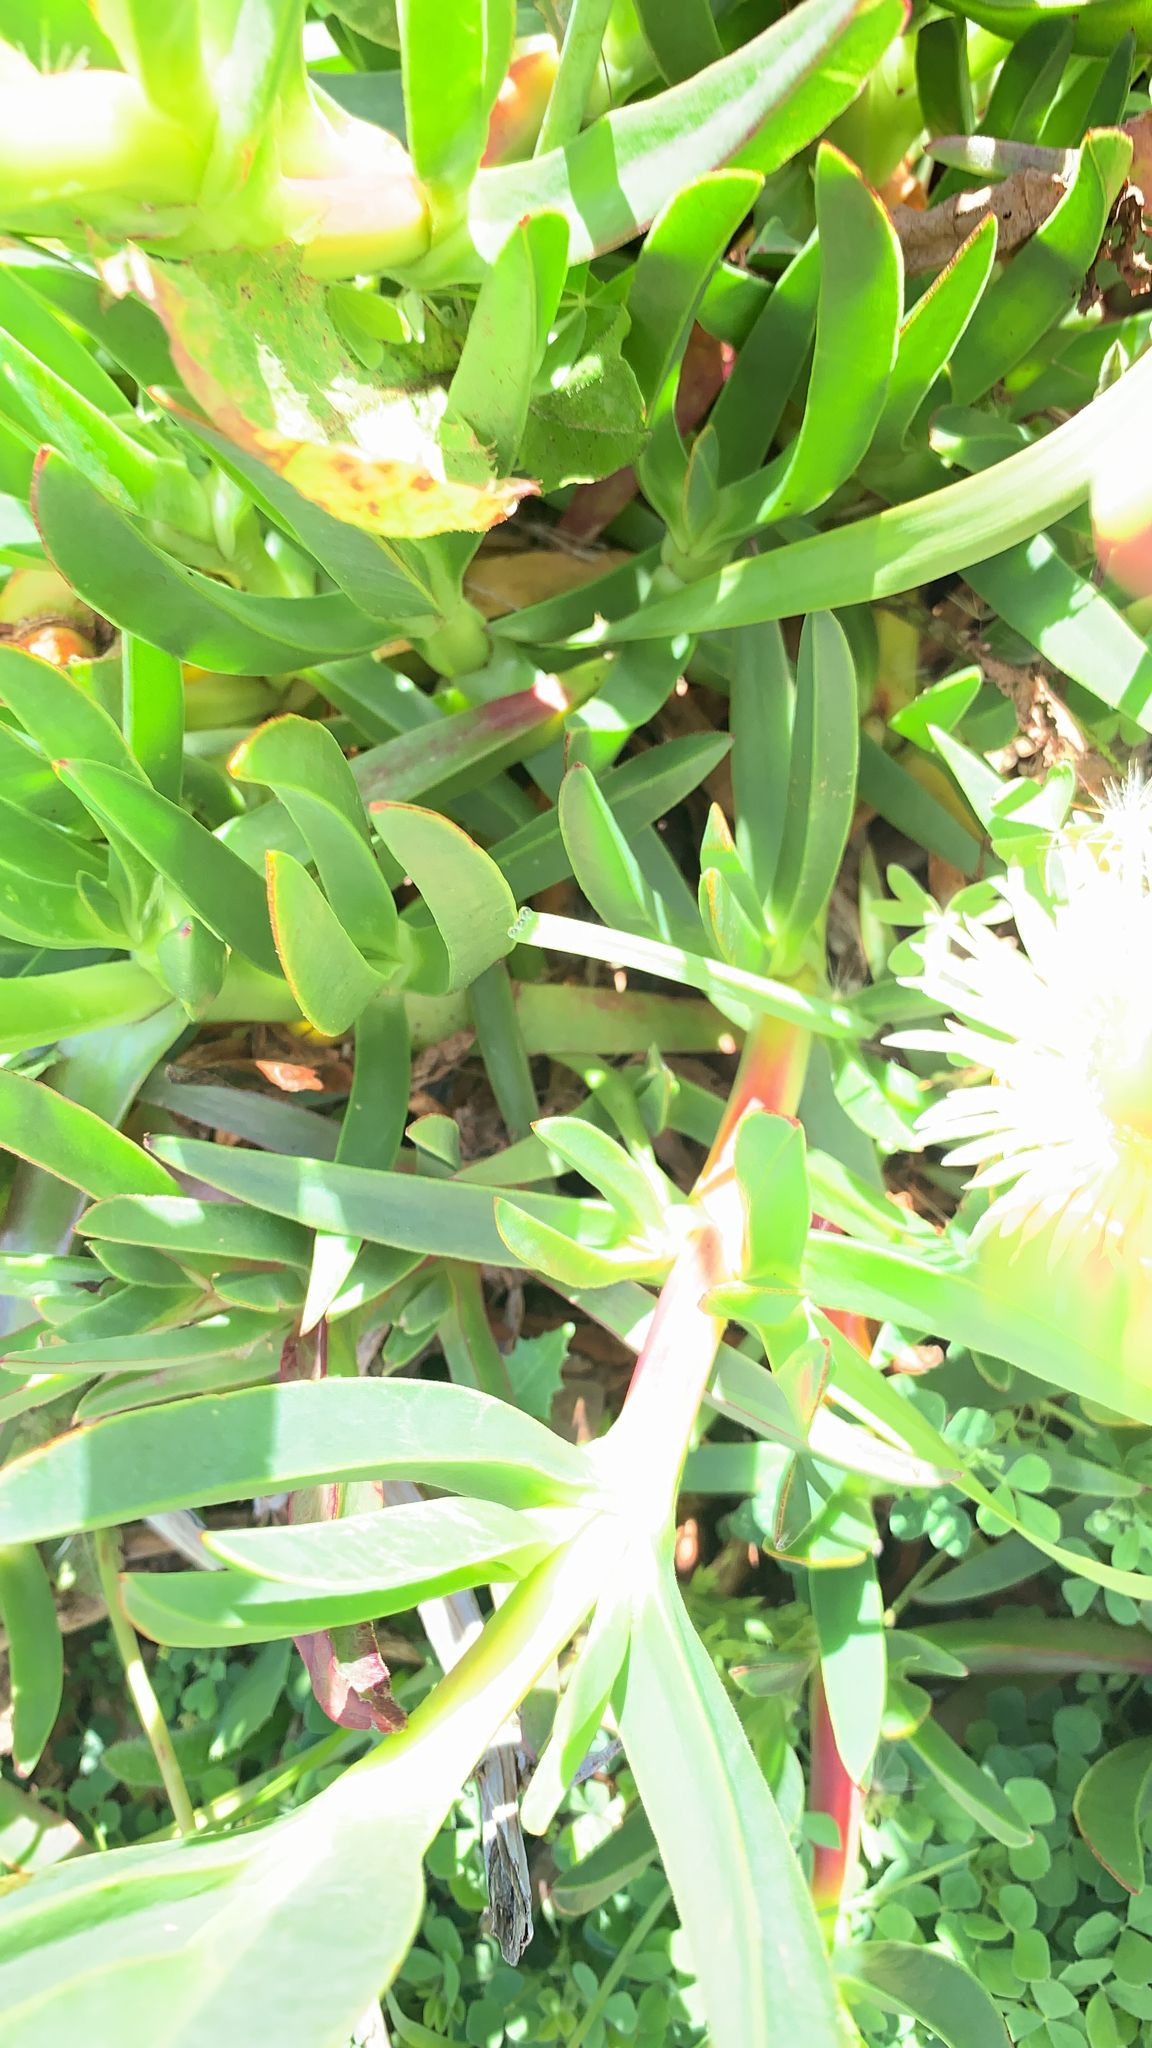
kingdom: Plantae
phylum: Tracheophyta
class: Magnoliopsida
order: Caryophyllales
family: Aizoaceae
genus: Carpobrotus
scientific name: Carpobrotus edulis
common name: Hottentot-fig
